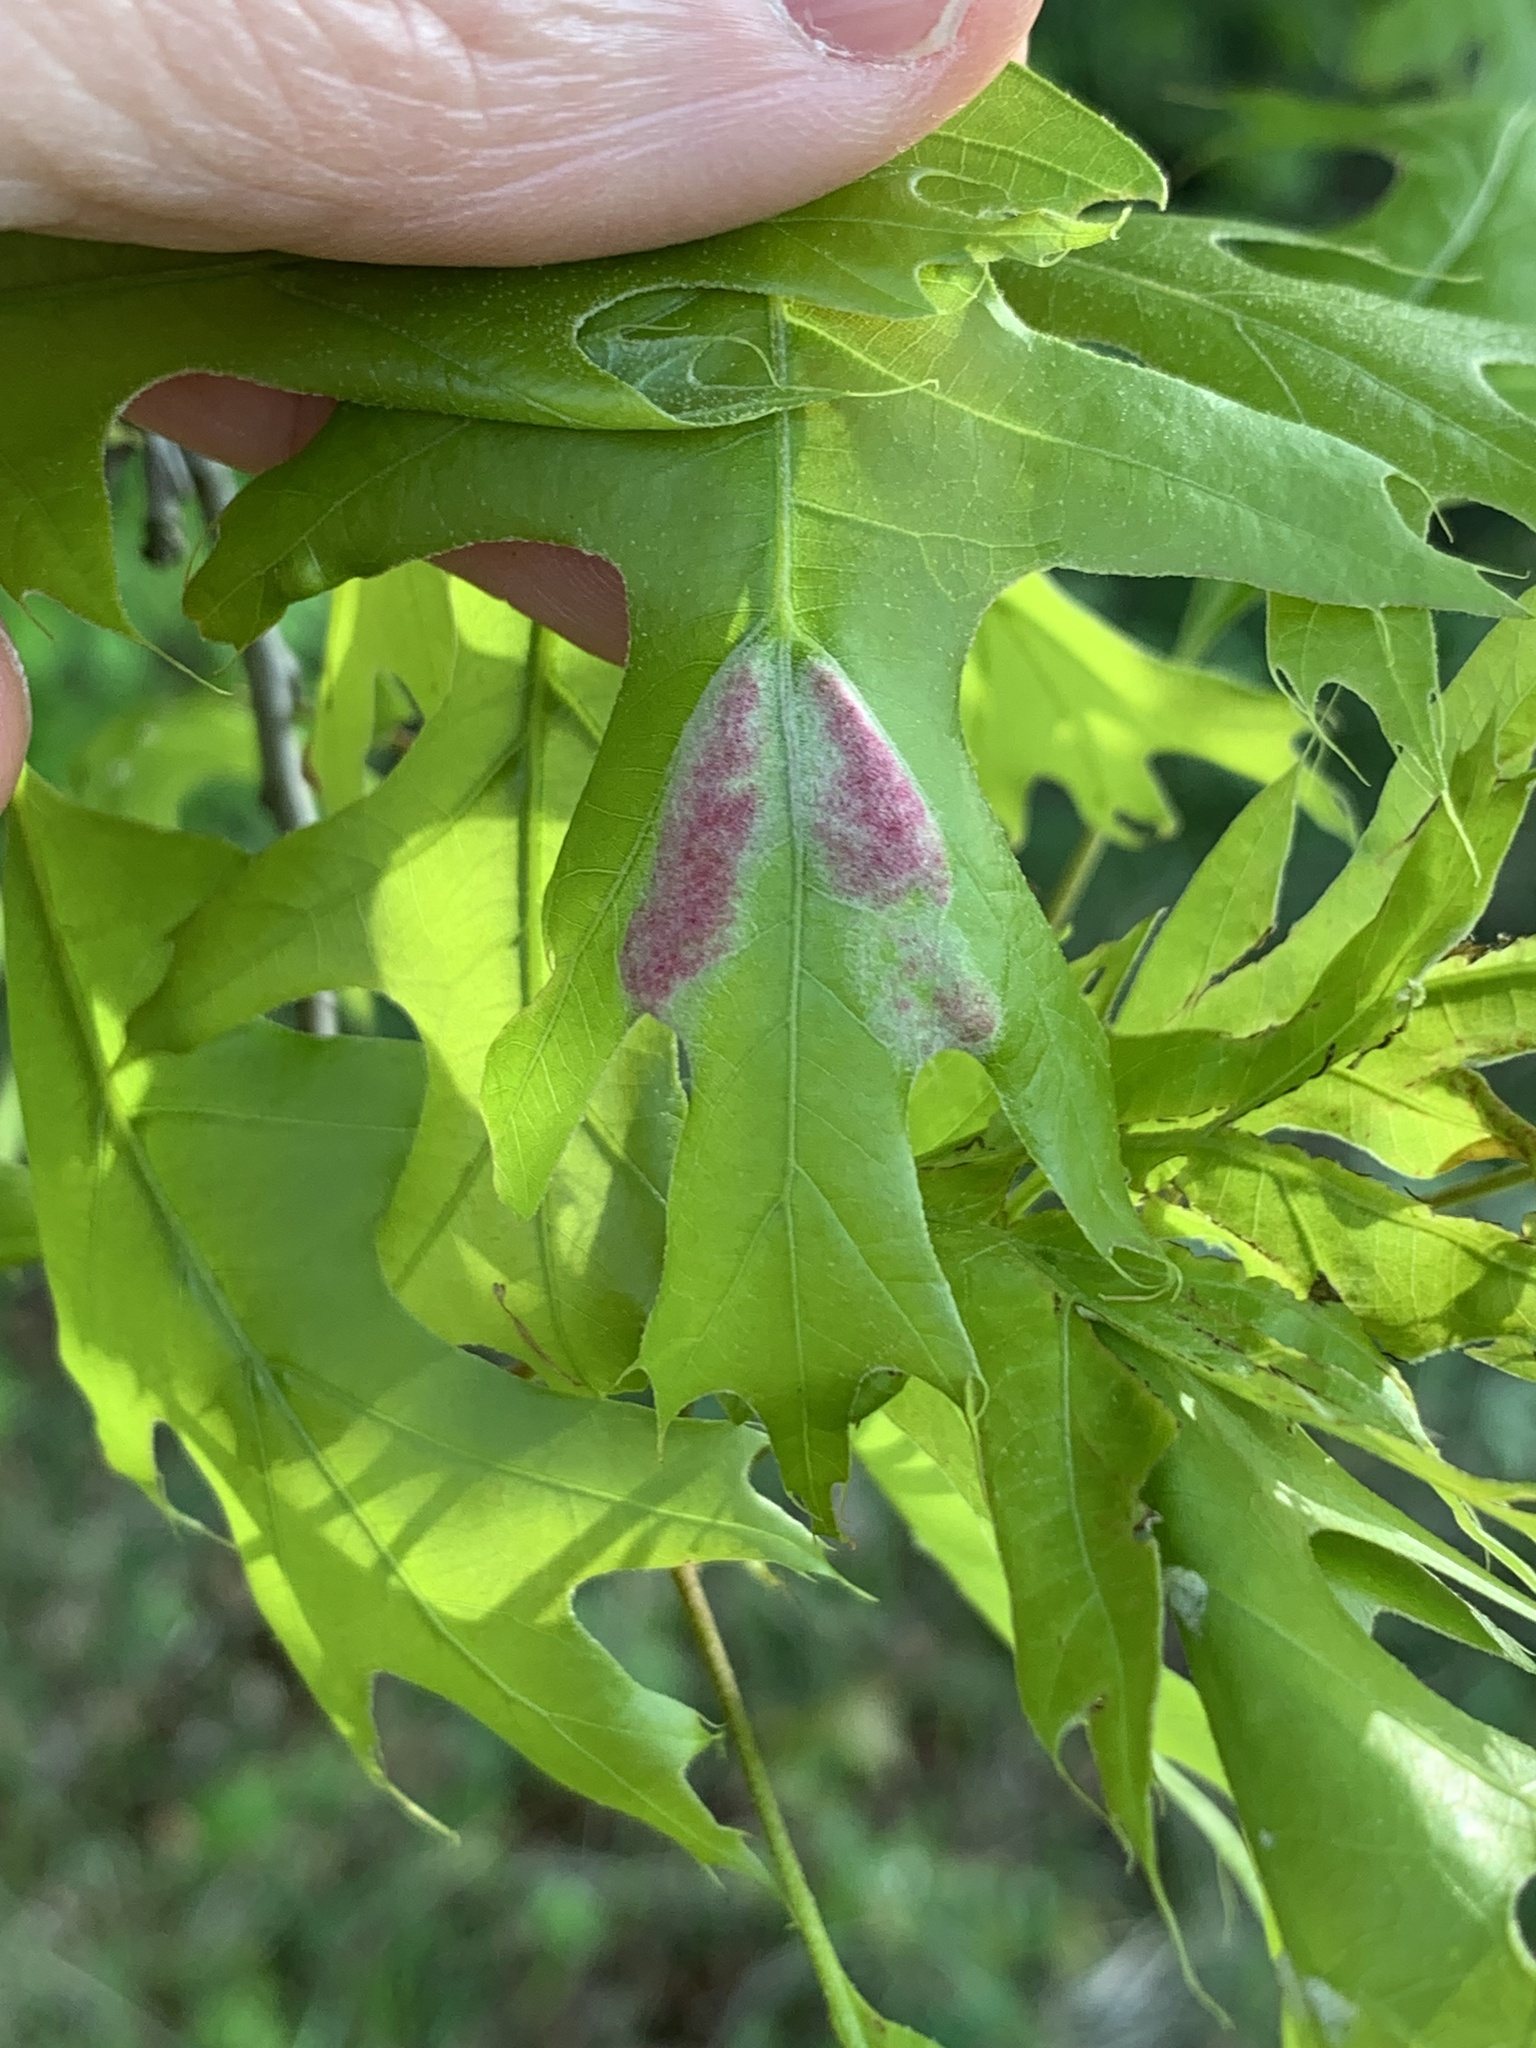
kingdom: Animalia
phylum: Arthropoda
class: Arachnida
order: Trombidiformes
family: Eriophyidae
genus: Aceria
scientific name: Aceria
